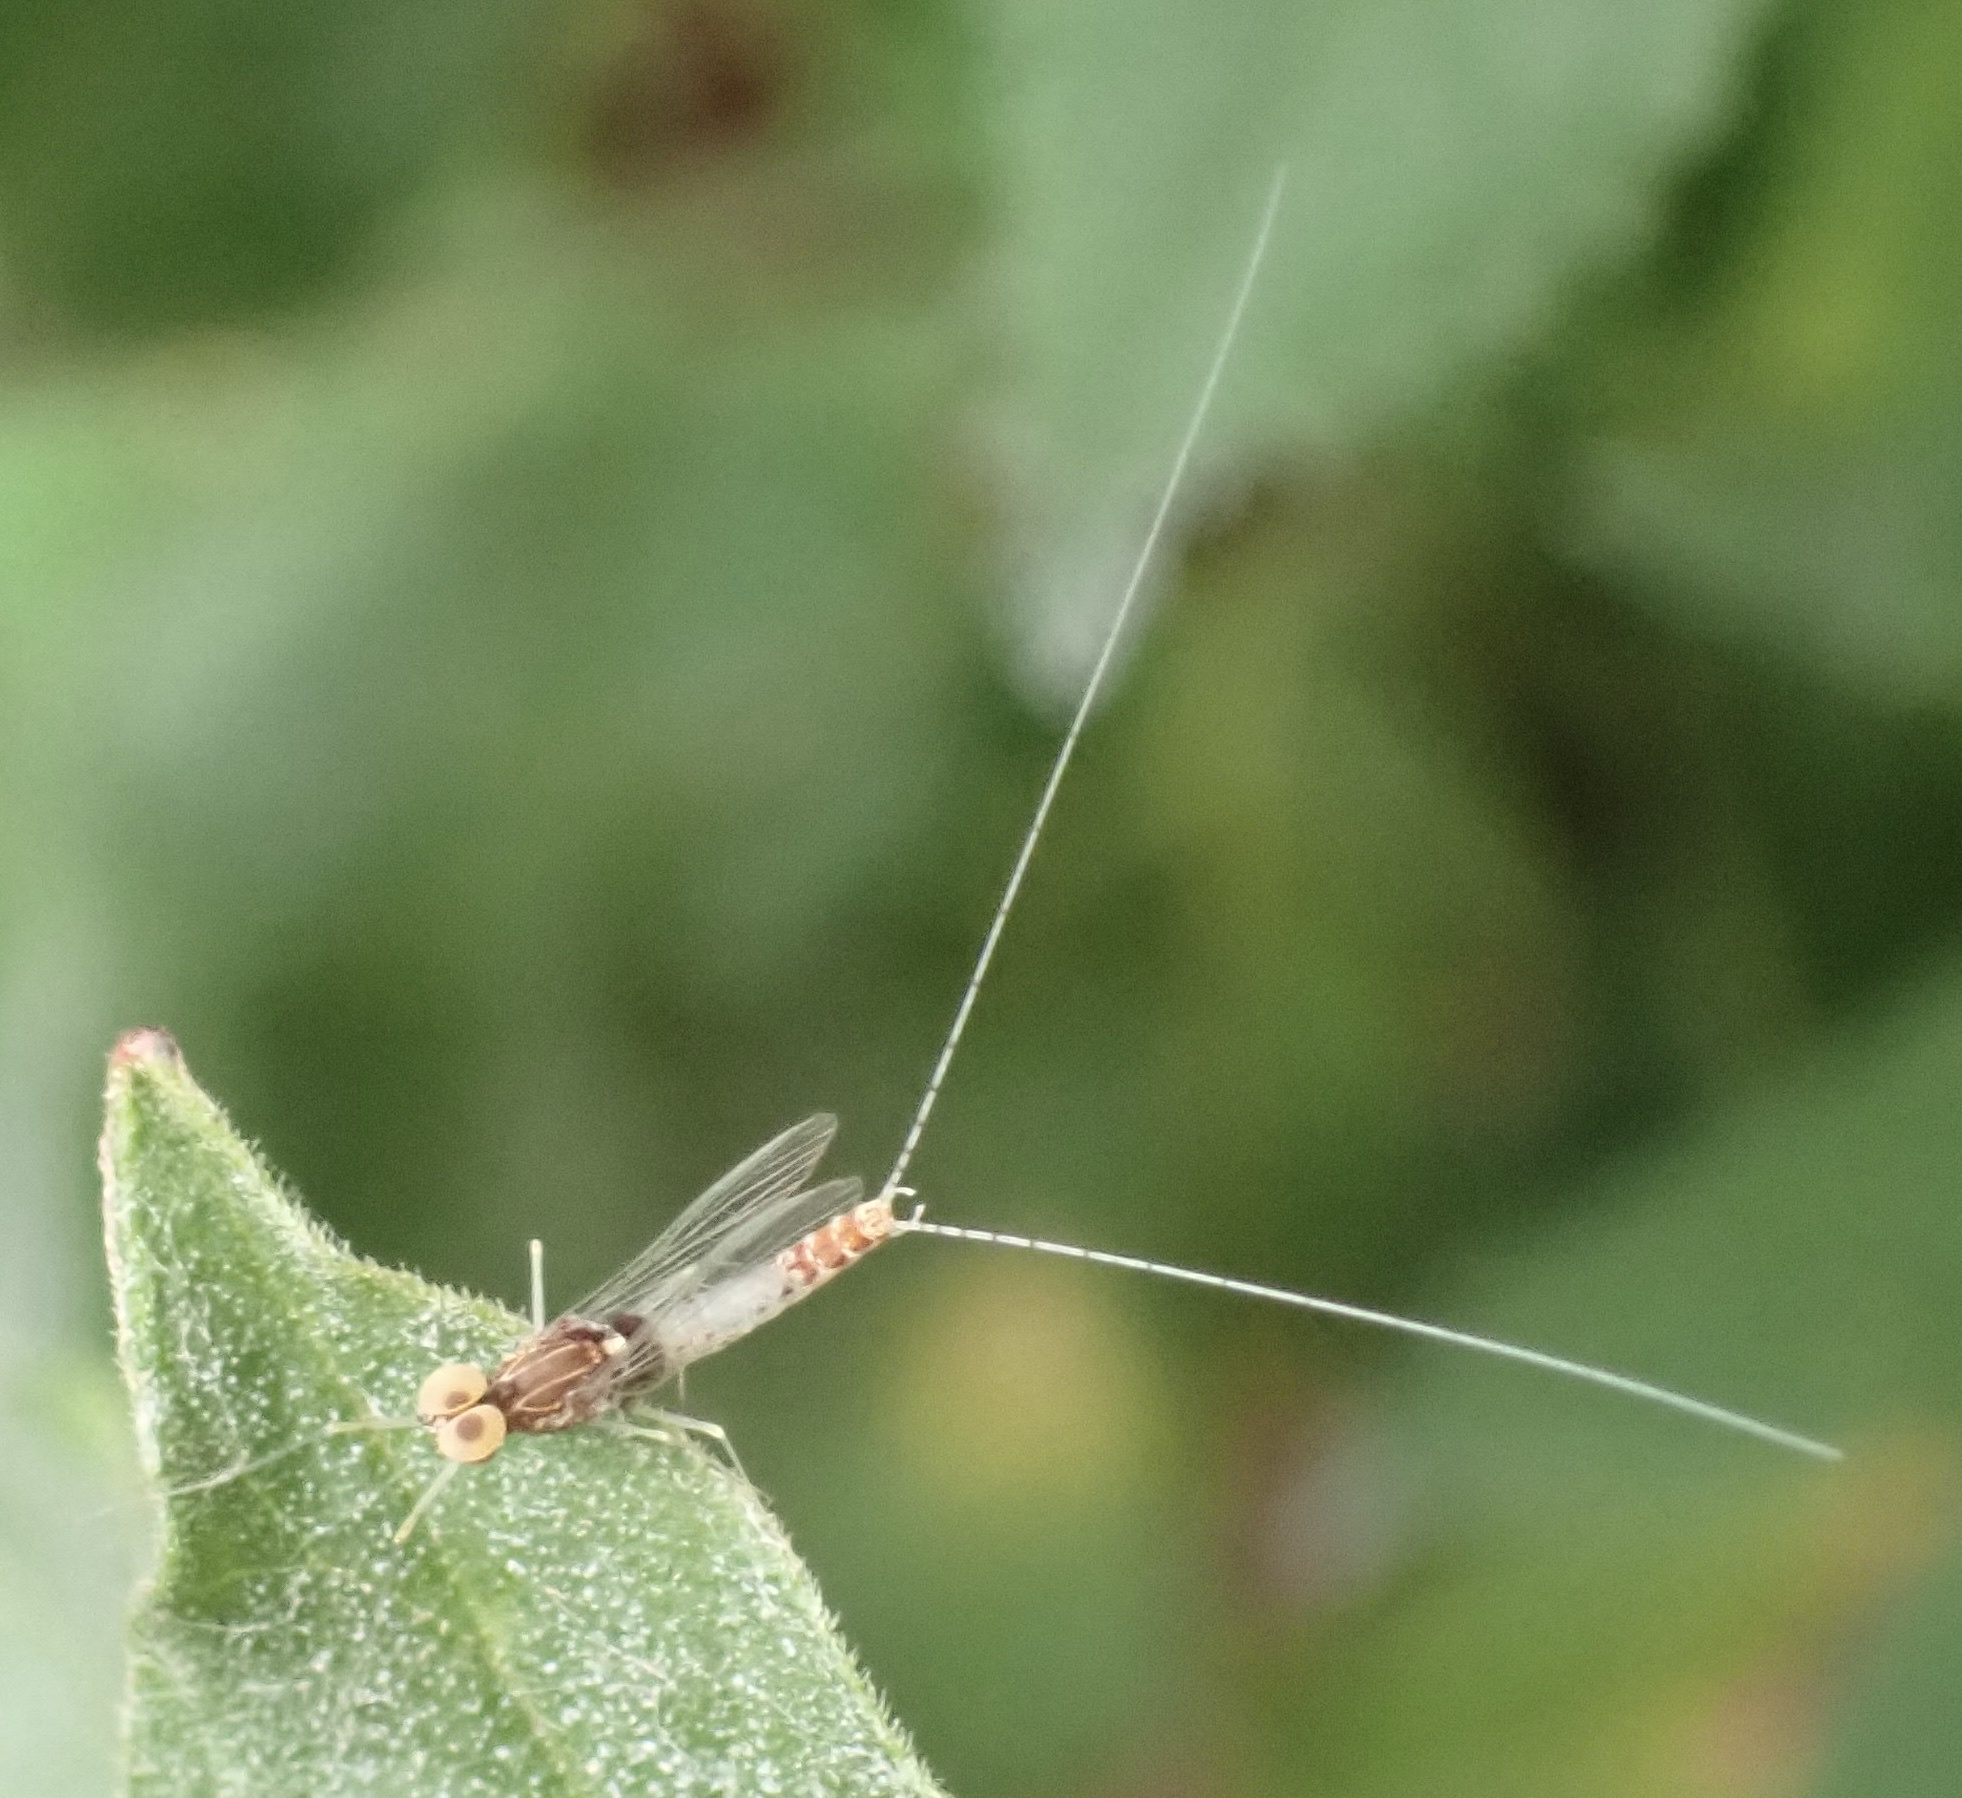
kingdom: Animalia
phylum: Arthropoda
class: Insecta
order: Ephemeroptera
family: Baetidae
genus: Cloeon
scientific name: Cloeon dipterum
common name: Pond olive
